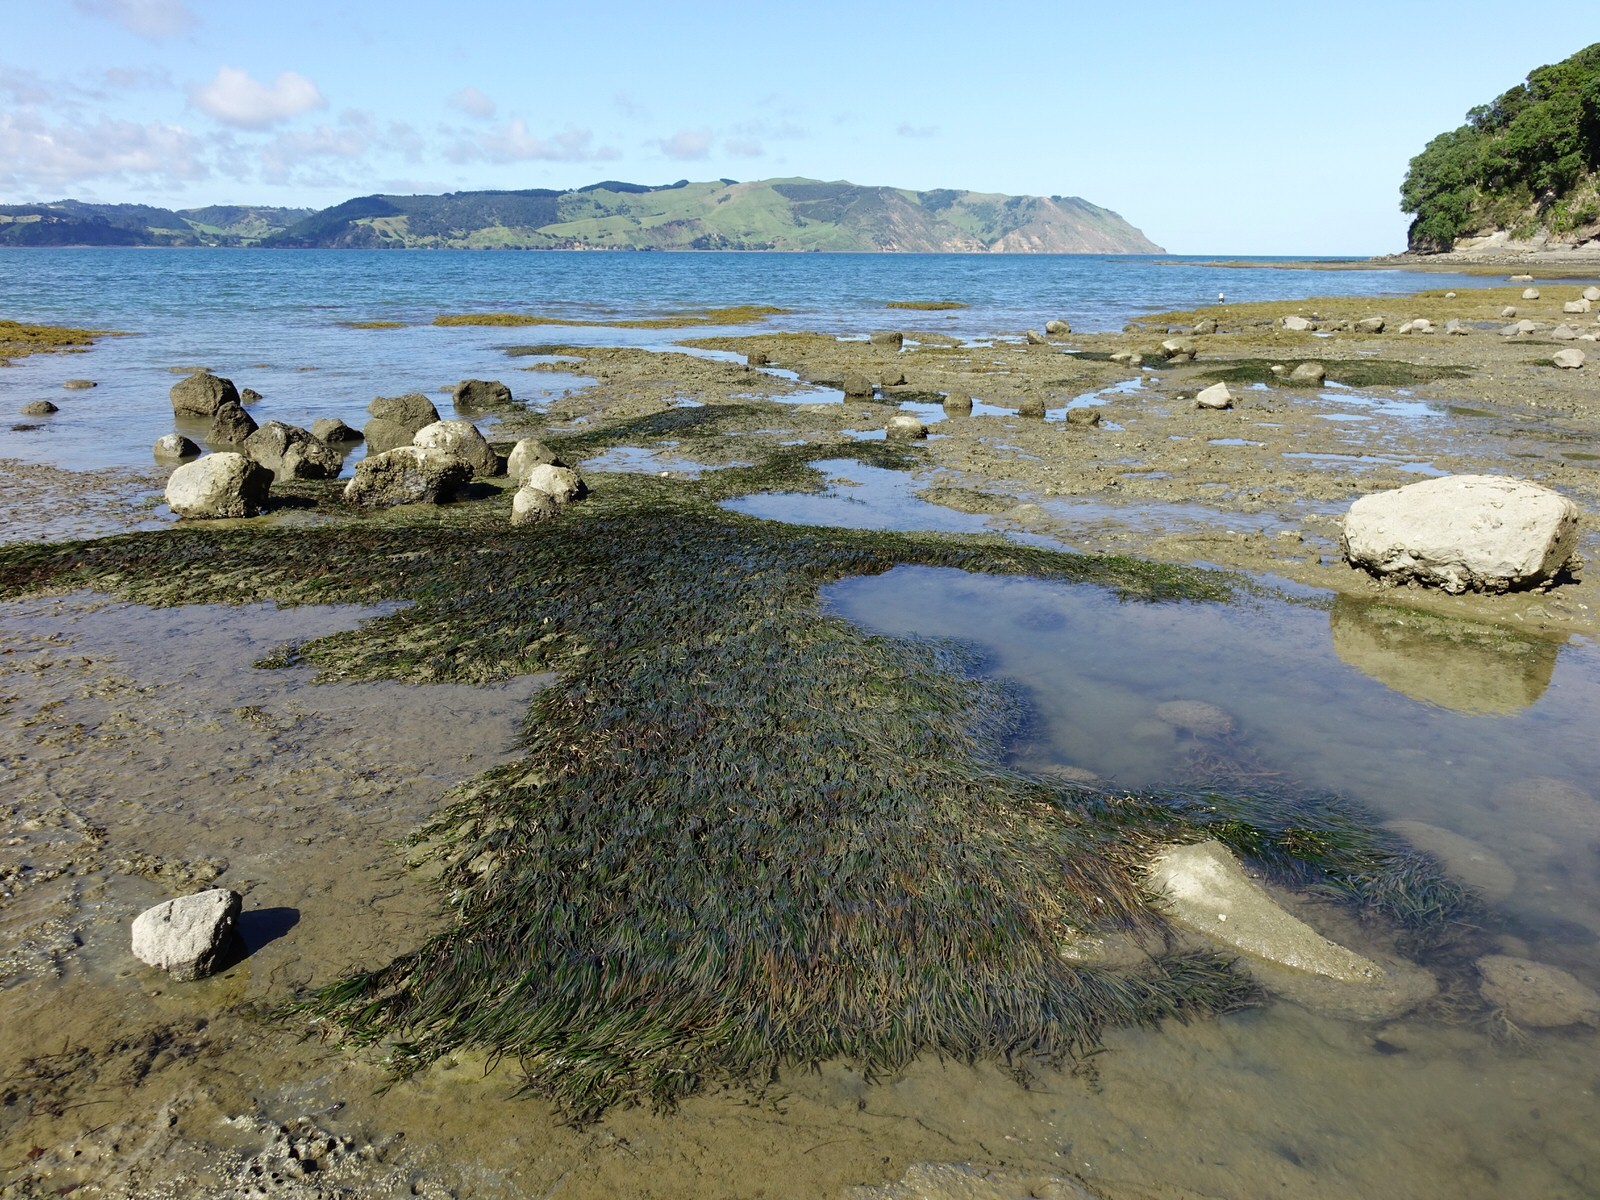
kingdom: Plantae
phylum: Tracheophyta
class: Liliopsida
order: Alismatales
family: Zosteraceae
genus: Zostera
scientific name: Zostera novazelandica
